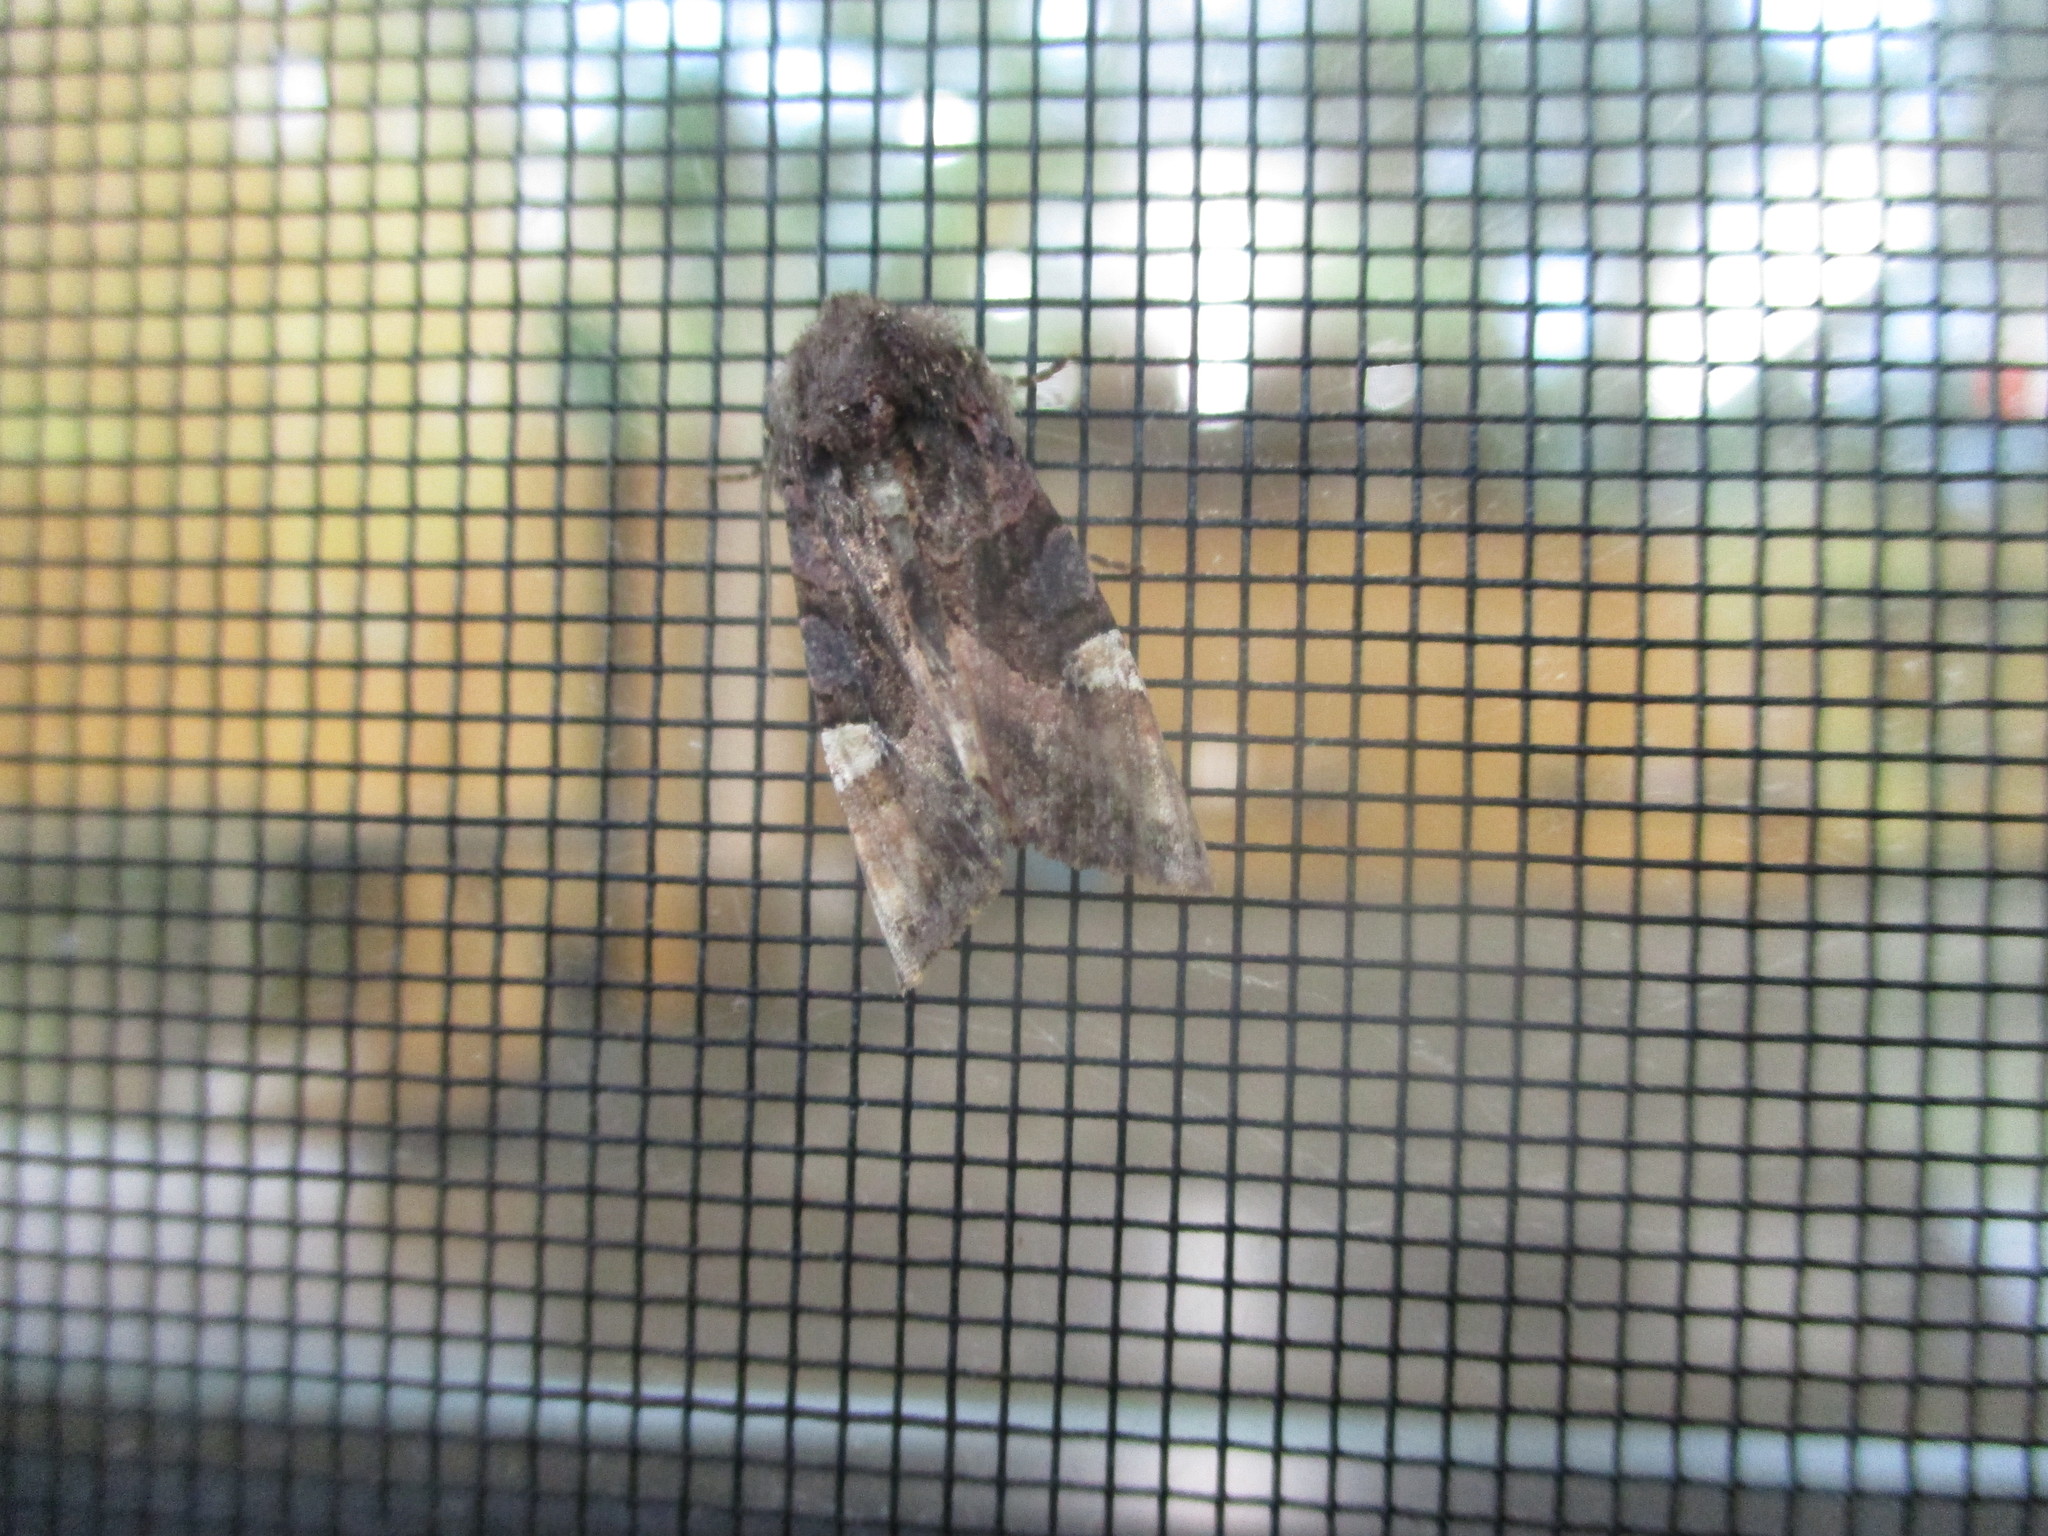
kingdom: Animalia
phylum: Arthropoda
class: Insecta
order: Lepidoptera
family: Noctuidae
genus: Euplexia
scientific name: Euplexia benesimilis
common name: American angle shades
